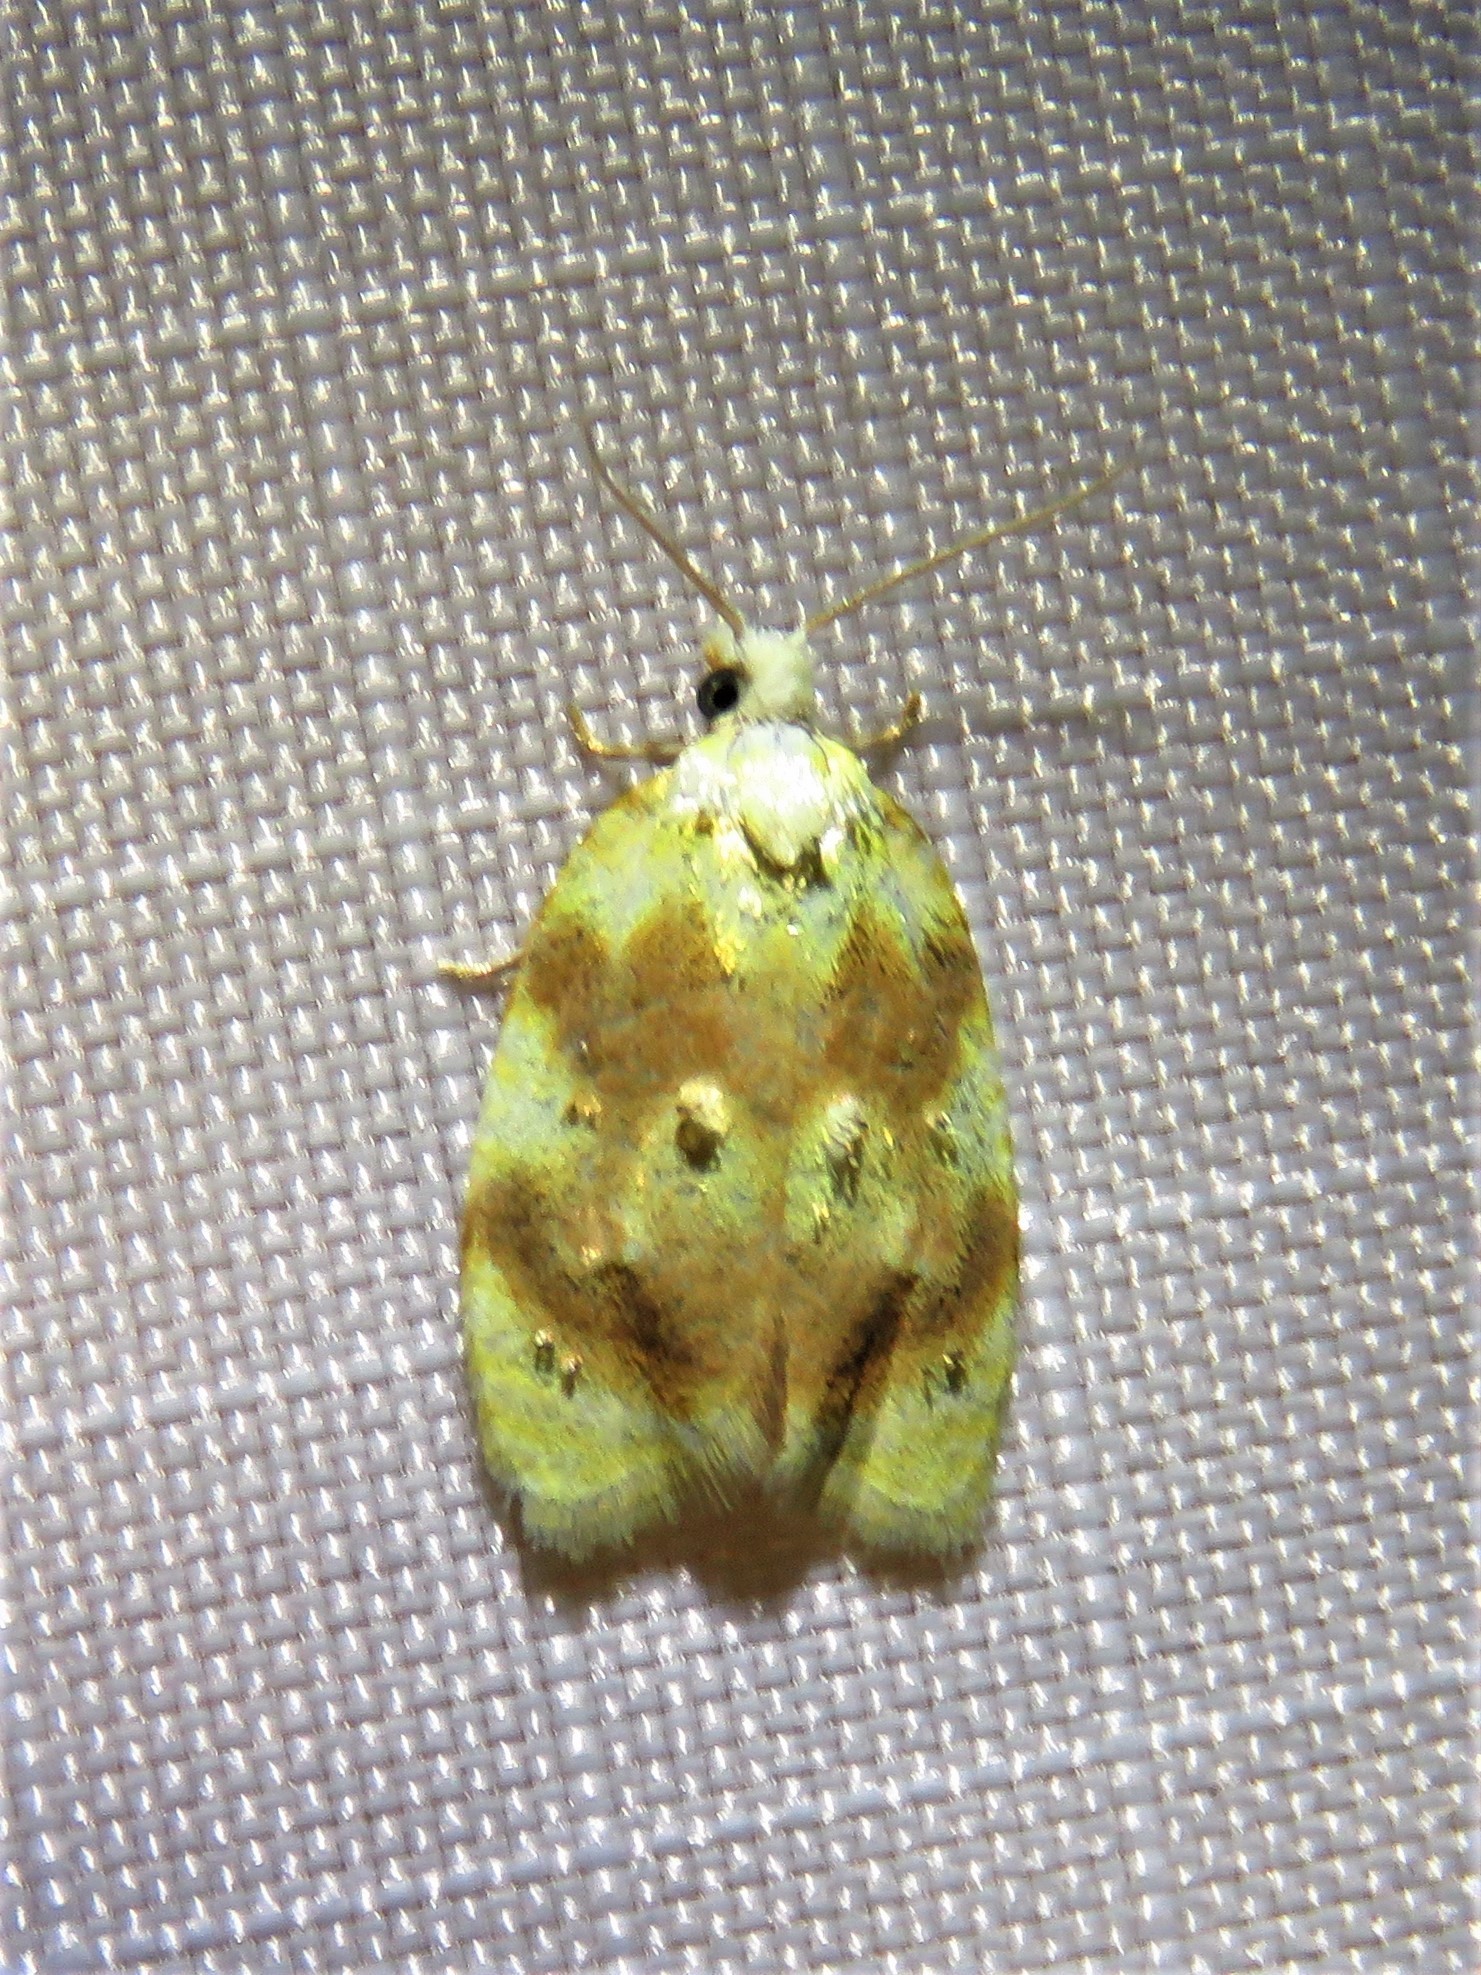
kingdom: Animalia
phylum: Arthropoda
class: Insecta
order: Lepidoptera
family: Tortricidae
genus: Acleris
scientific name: Acleris semipurpurana
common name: Oak leaftier moth
